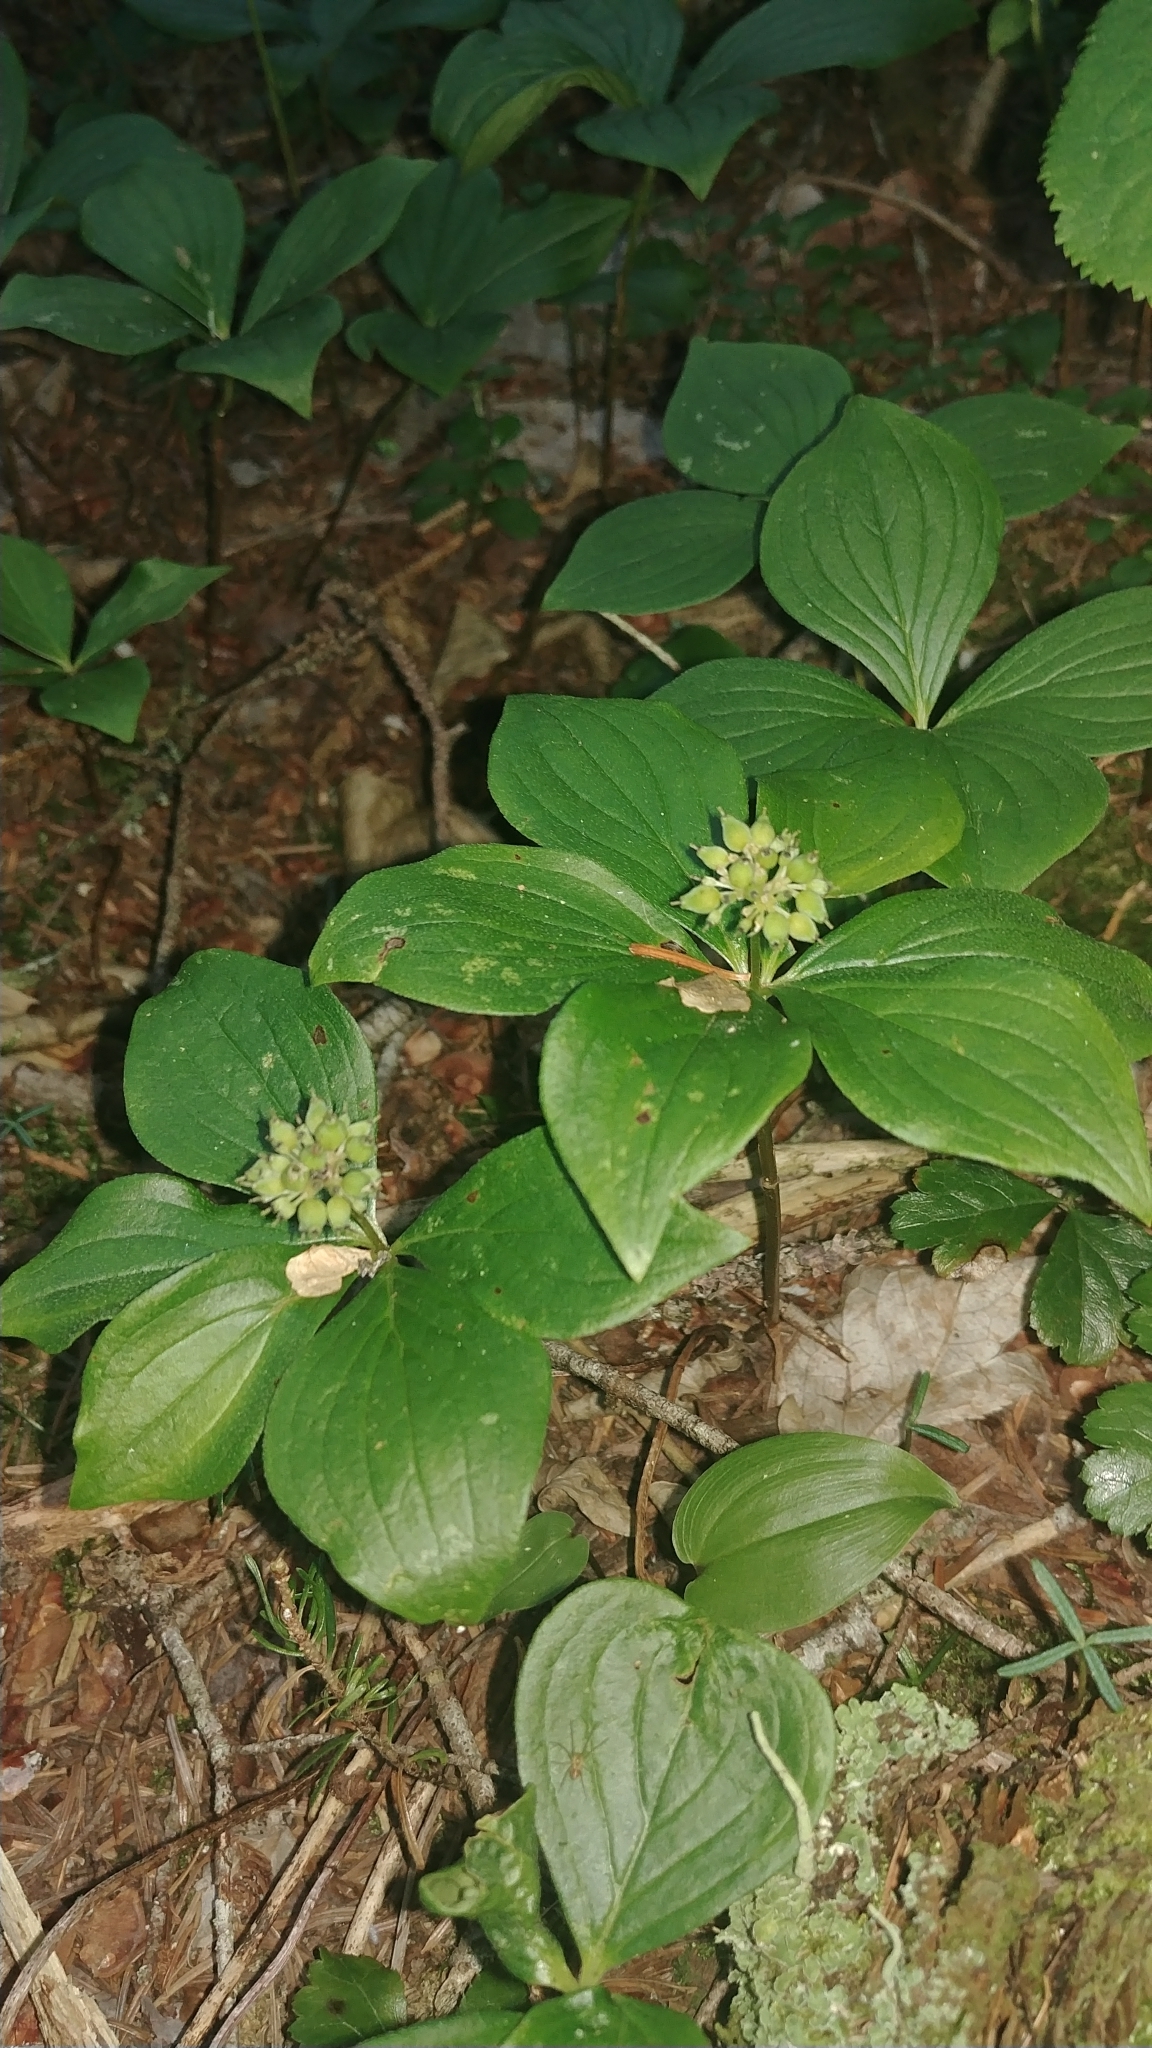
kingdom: Plantae
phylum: Tracheophyta
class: Magnoliopsida
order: Cornales
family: Cornaceae
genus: Cornus
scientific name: Cornus canadensis
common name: Creeping dogwood
